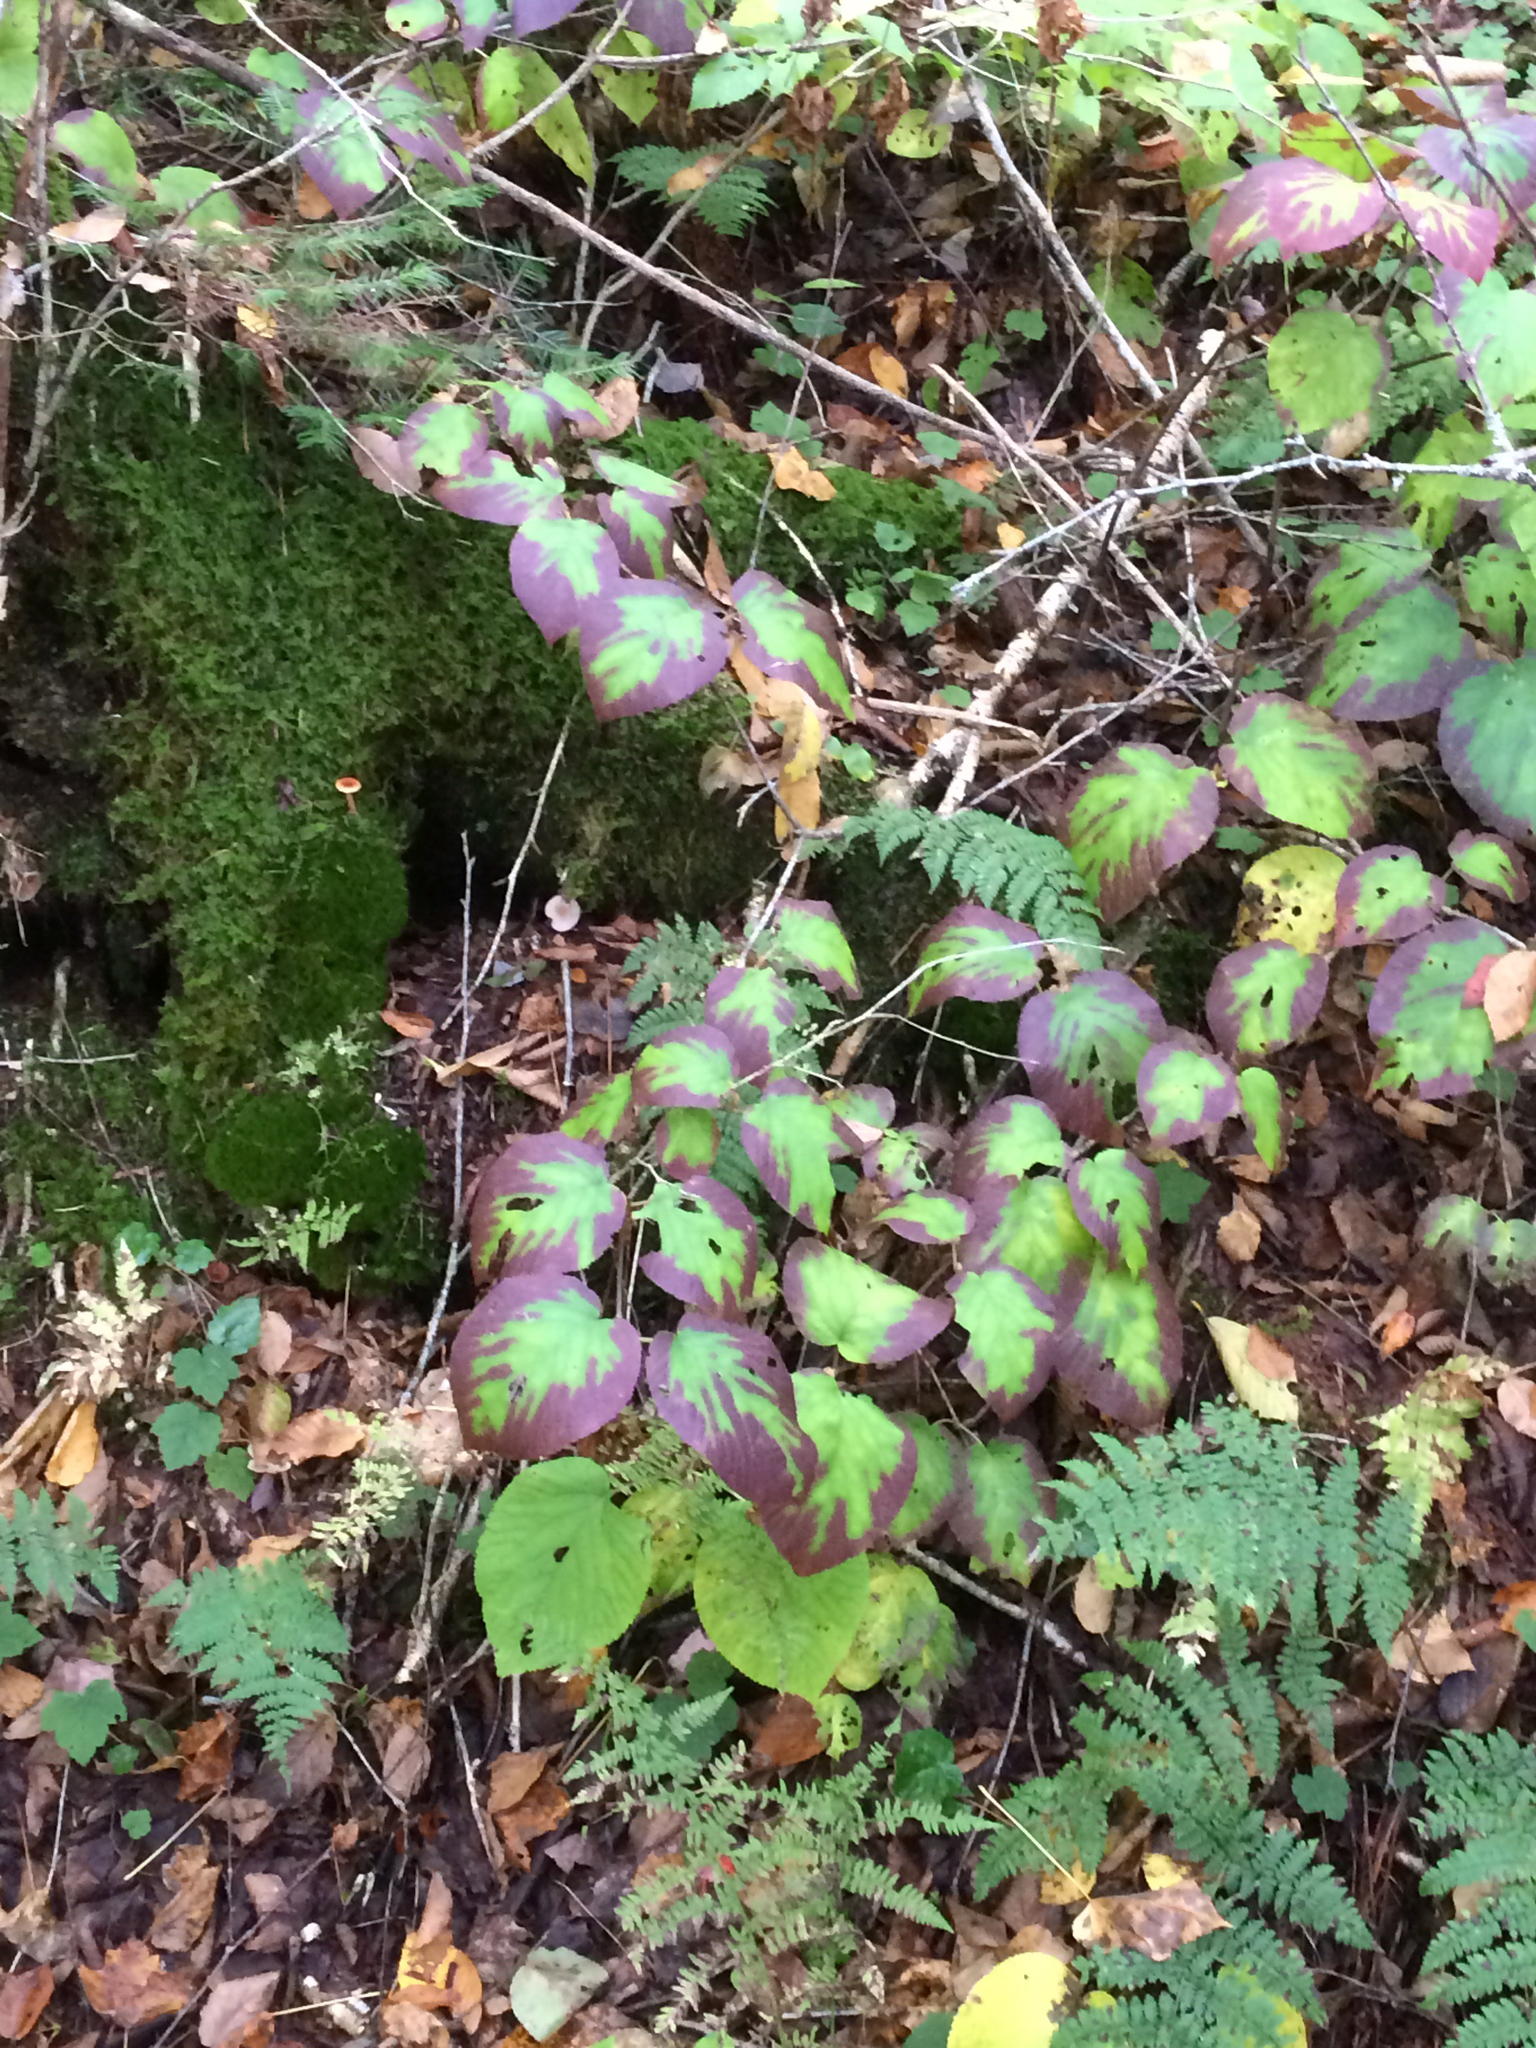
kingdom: Plantae
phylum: Tracheophyta
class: Magnoliopsida
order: Dipsacales
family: Viburnaceae
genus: Viburnum
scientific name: Viburnum lantanoides
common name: Hobblebush
